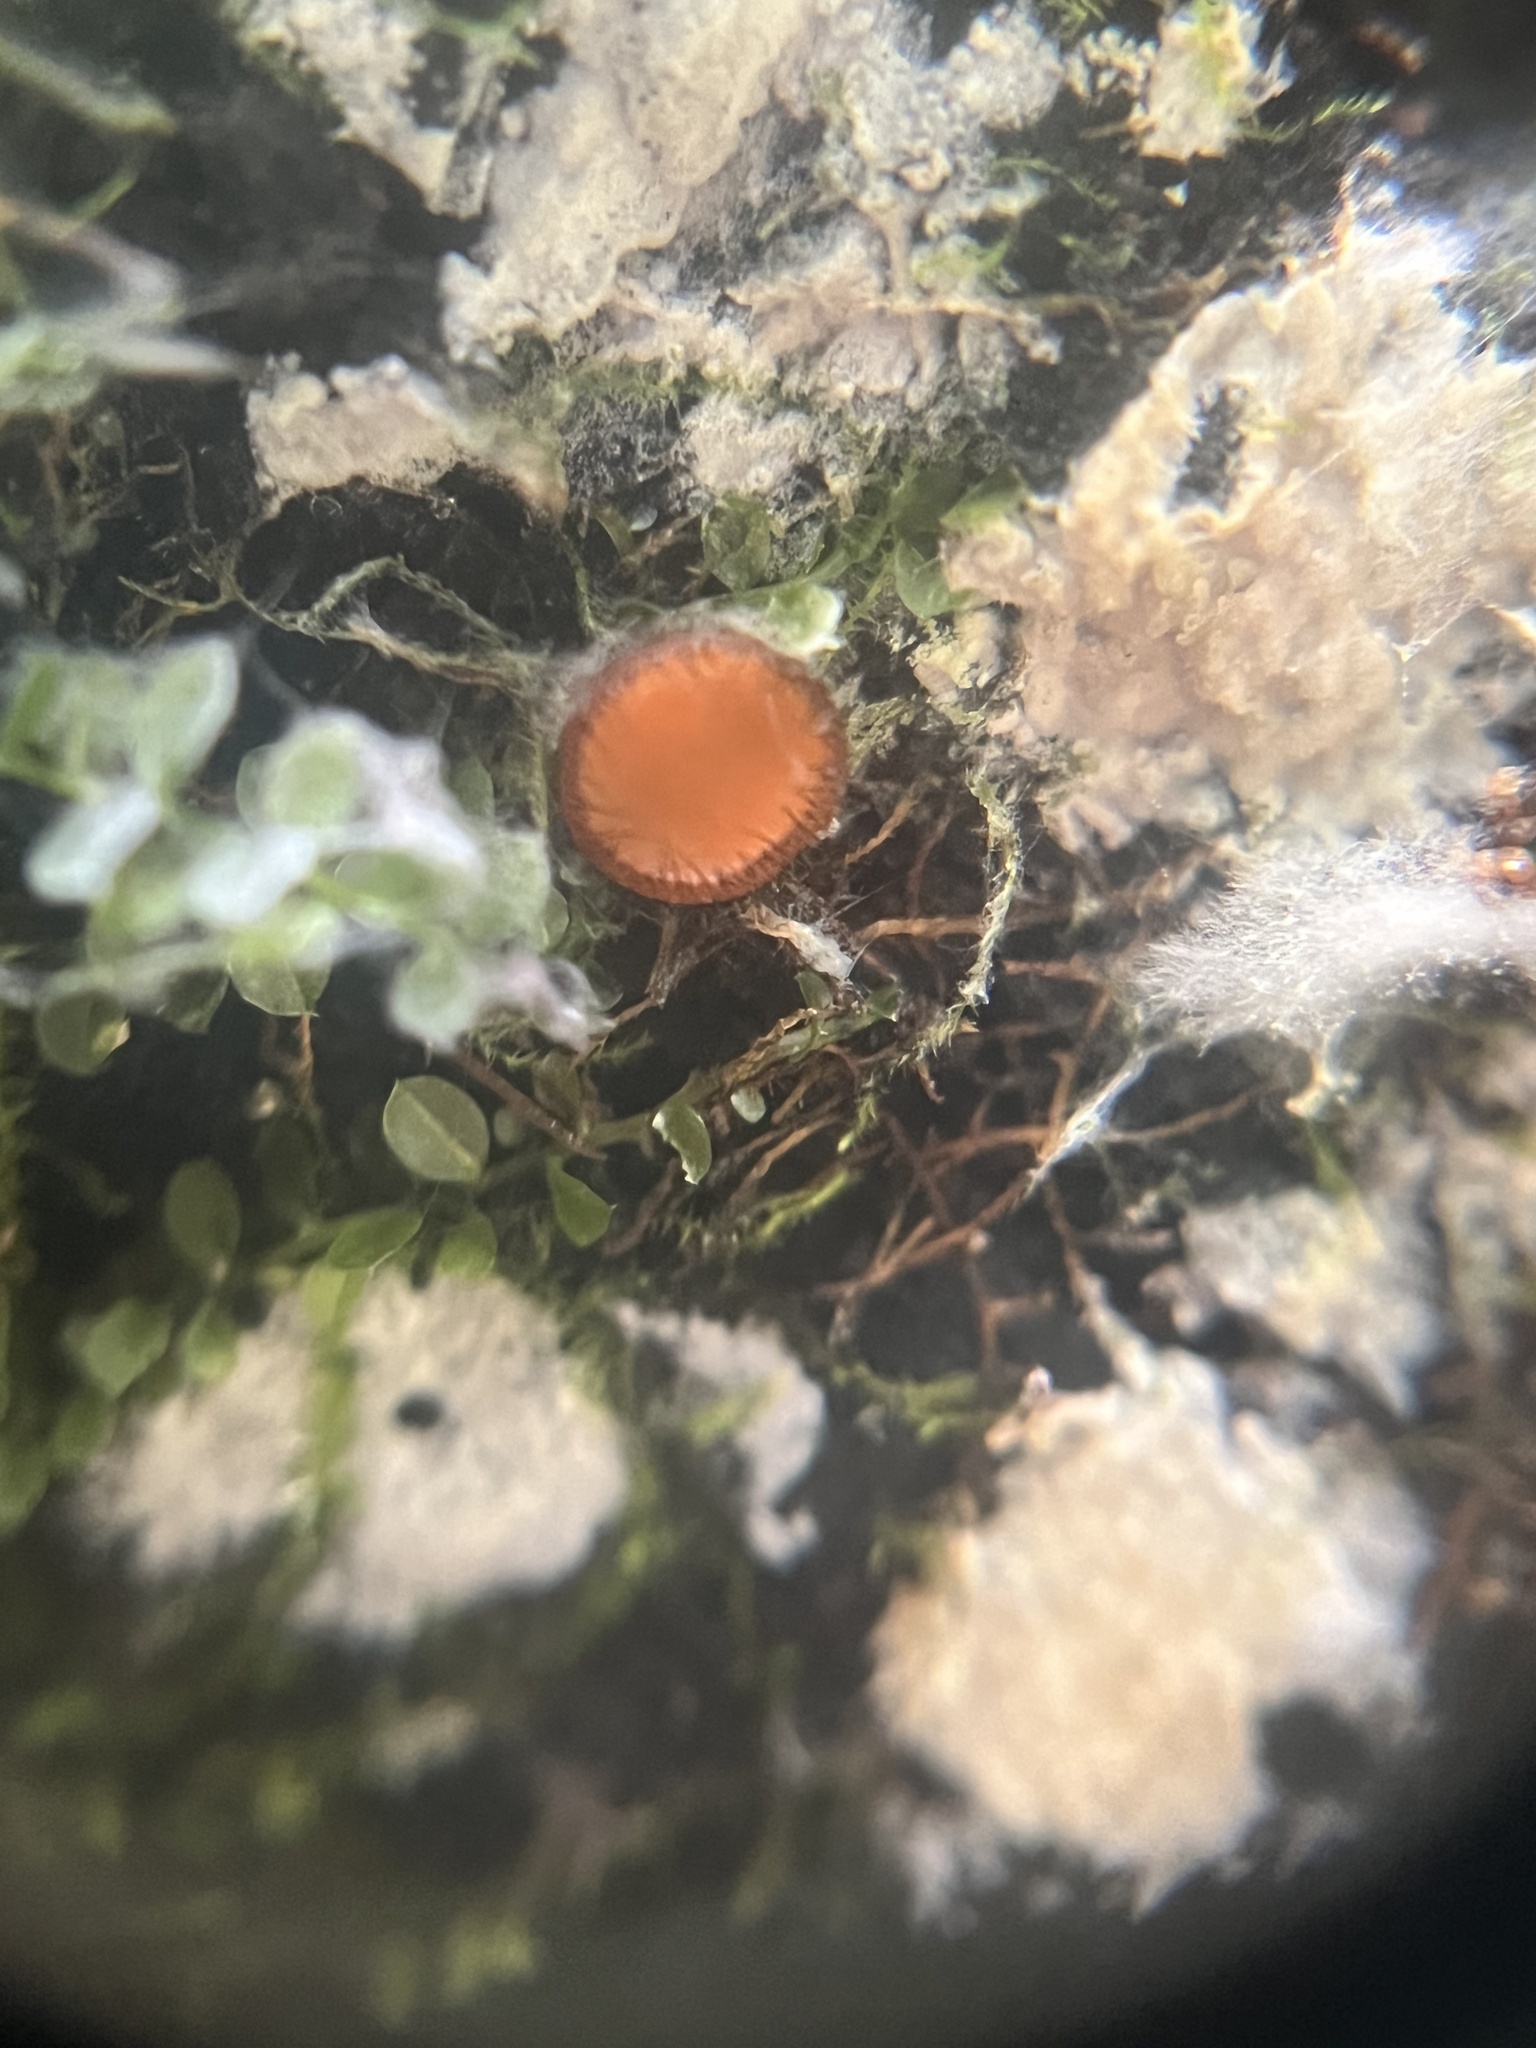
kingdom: Fungi
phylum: Ascomycota
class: Pezizomycetes
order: Pezizales
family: Pyronemataceae
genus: Scutellinia
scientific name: Scutellinia scutellata
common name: Common eyelash
